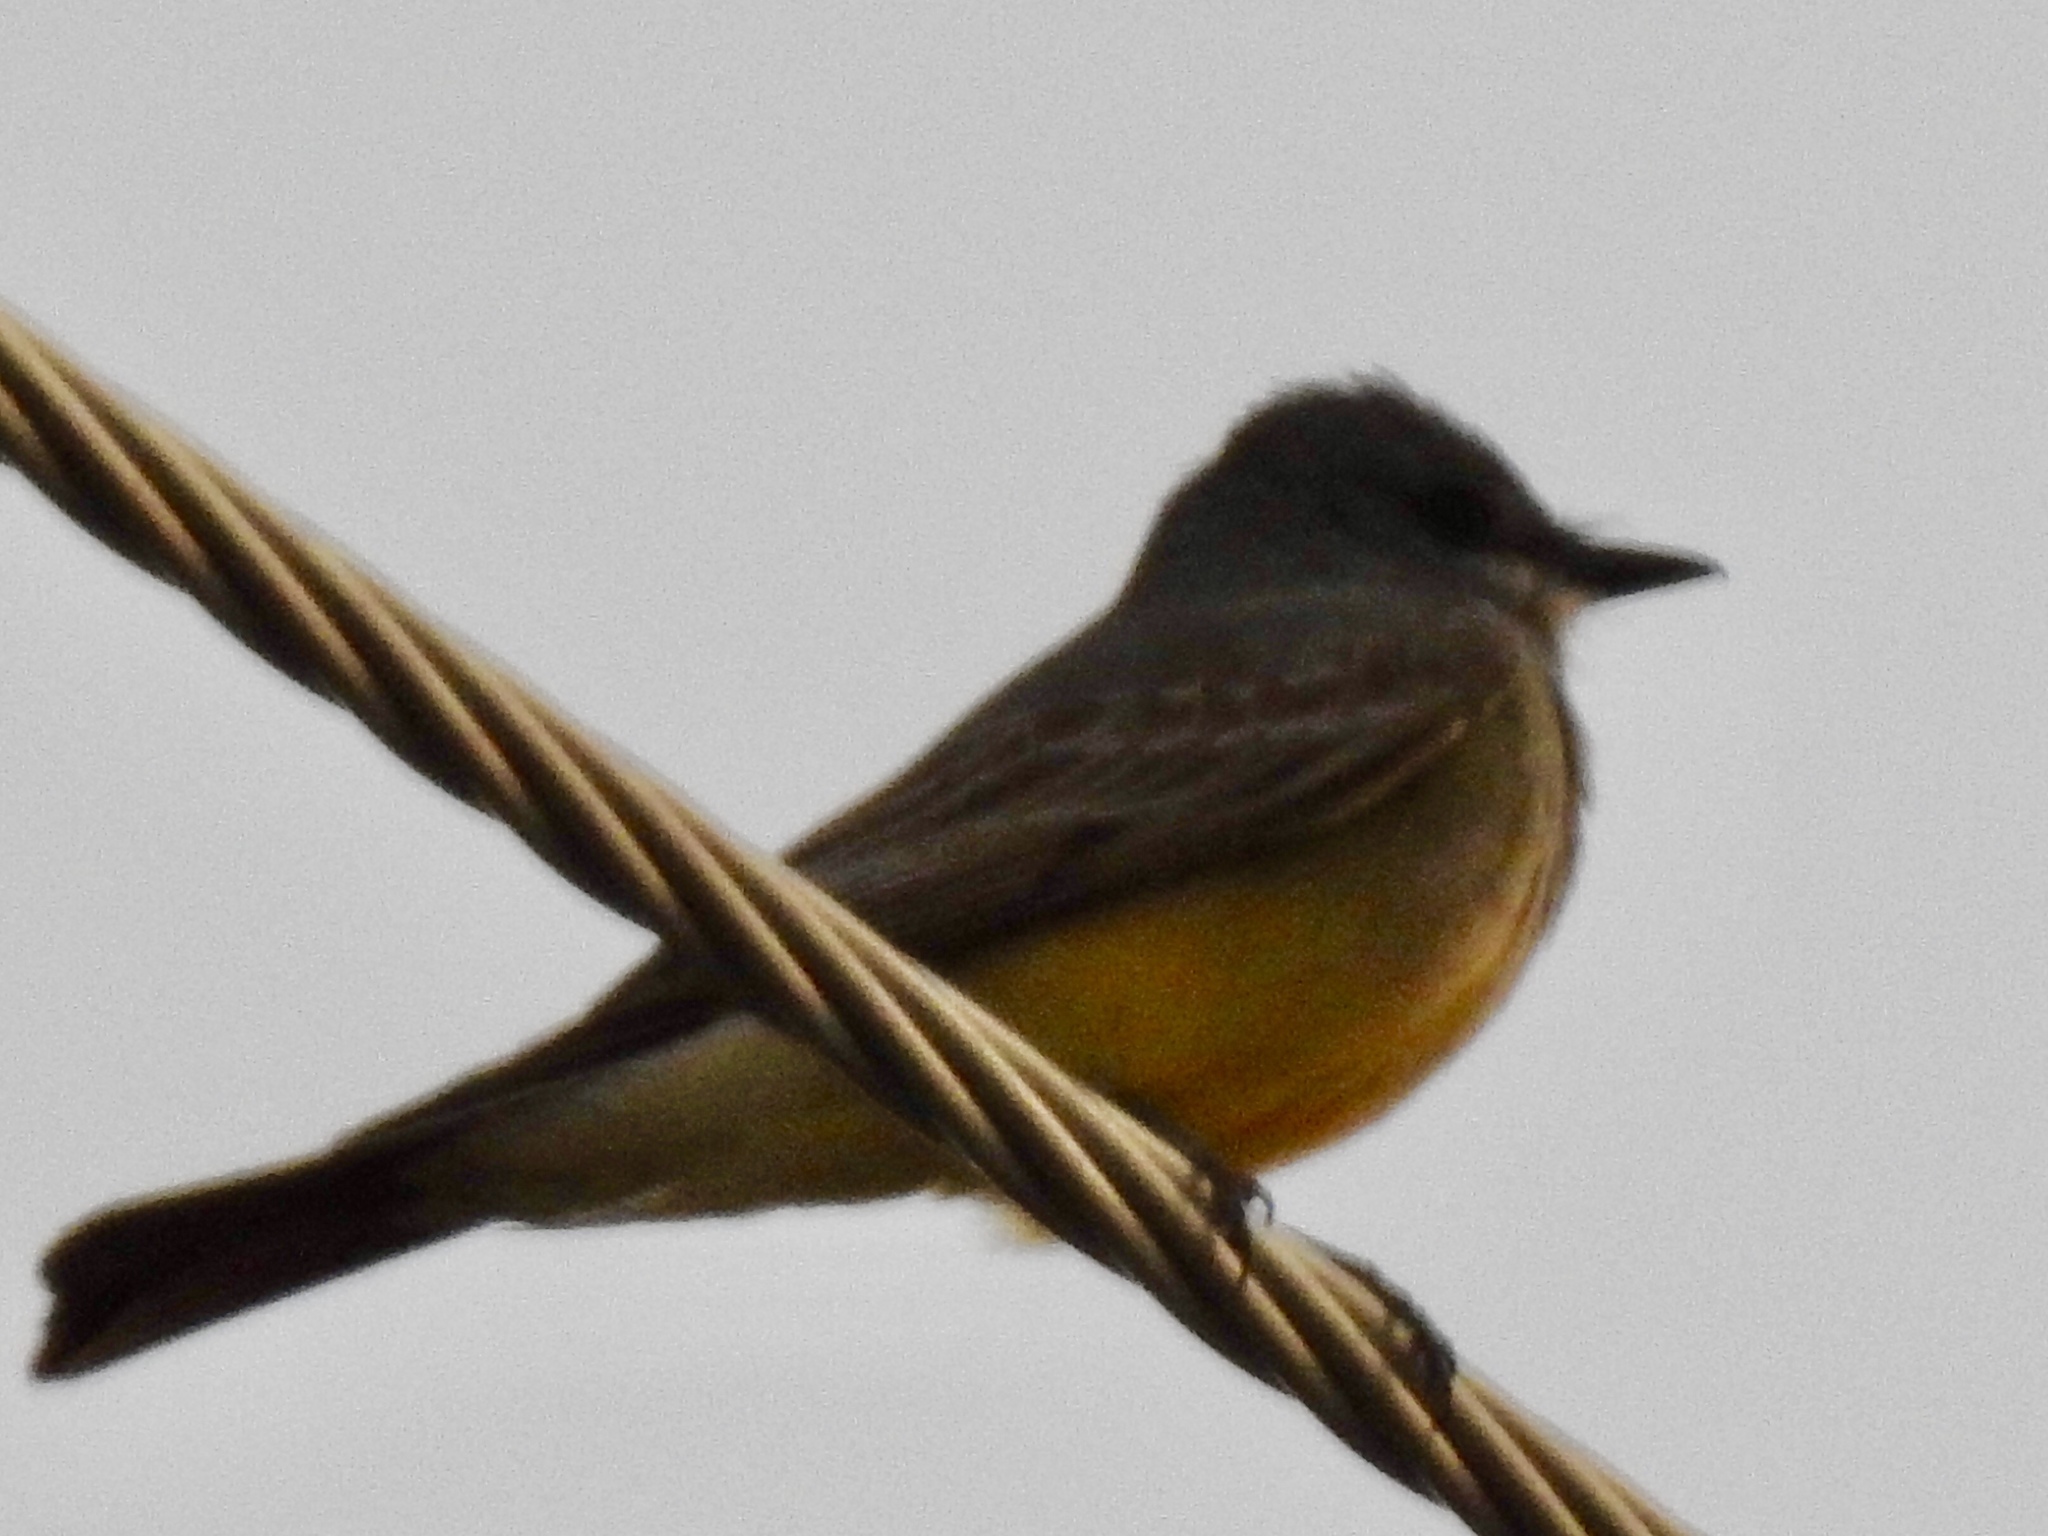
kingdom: Animalia
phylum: Chordata
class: Aves
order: Passeriformes
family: Tyrannidae
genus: Tyrannus
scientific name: Tyrannus vociferans
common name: Cassin's kingbird
